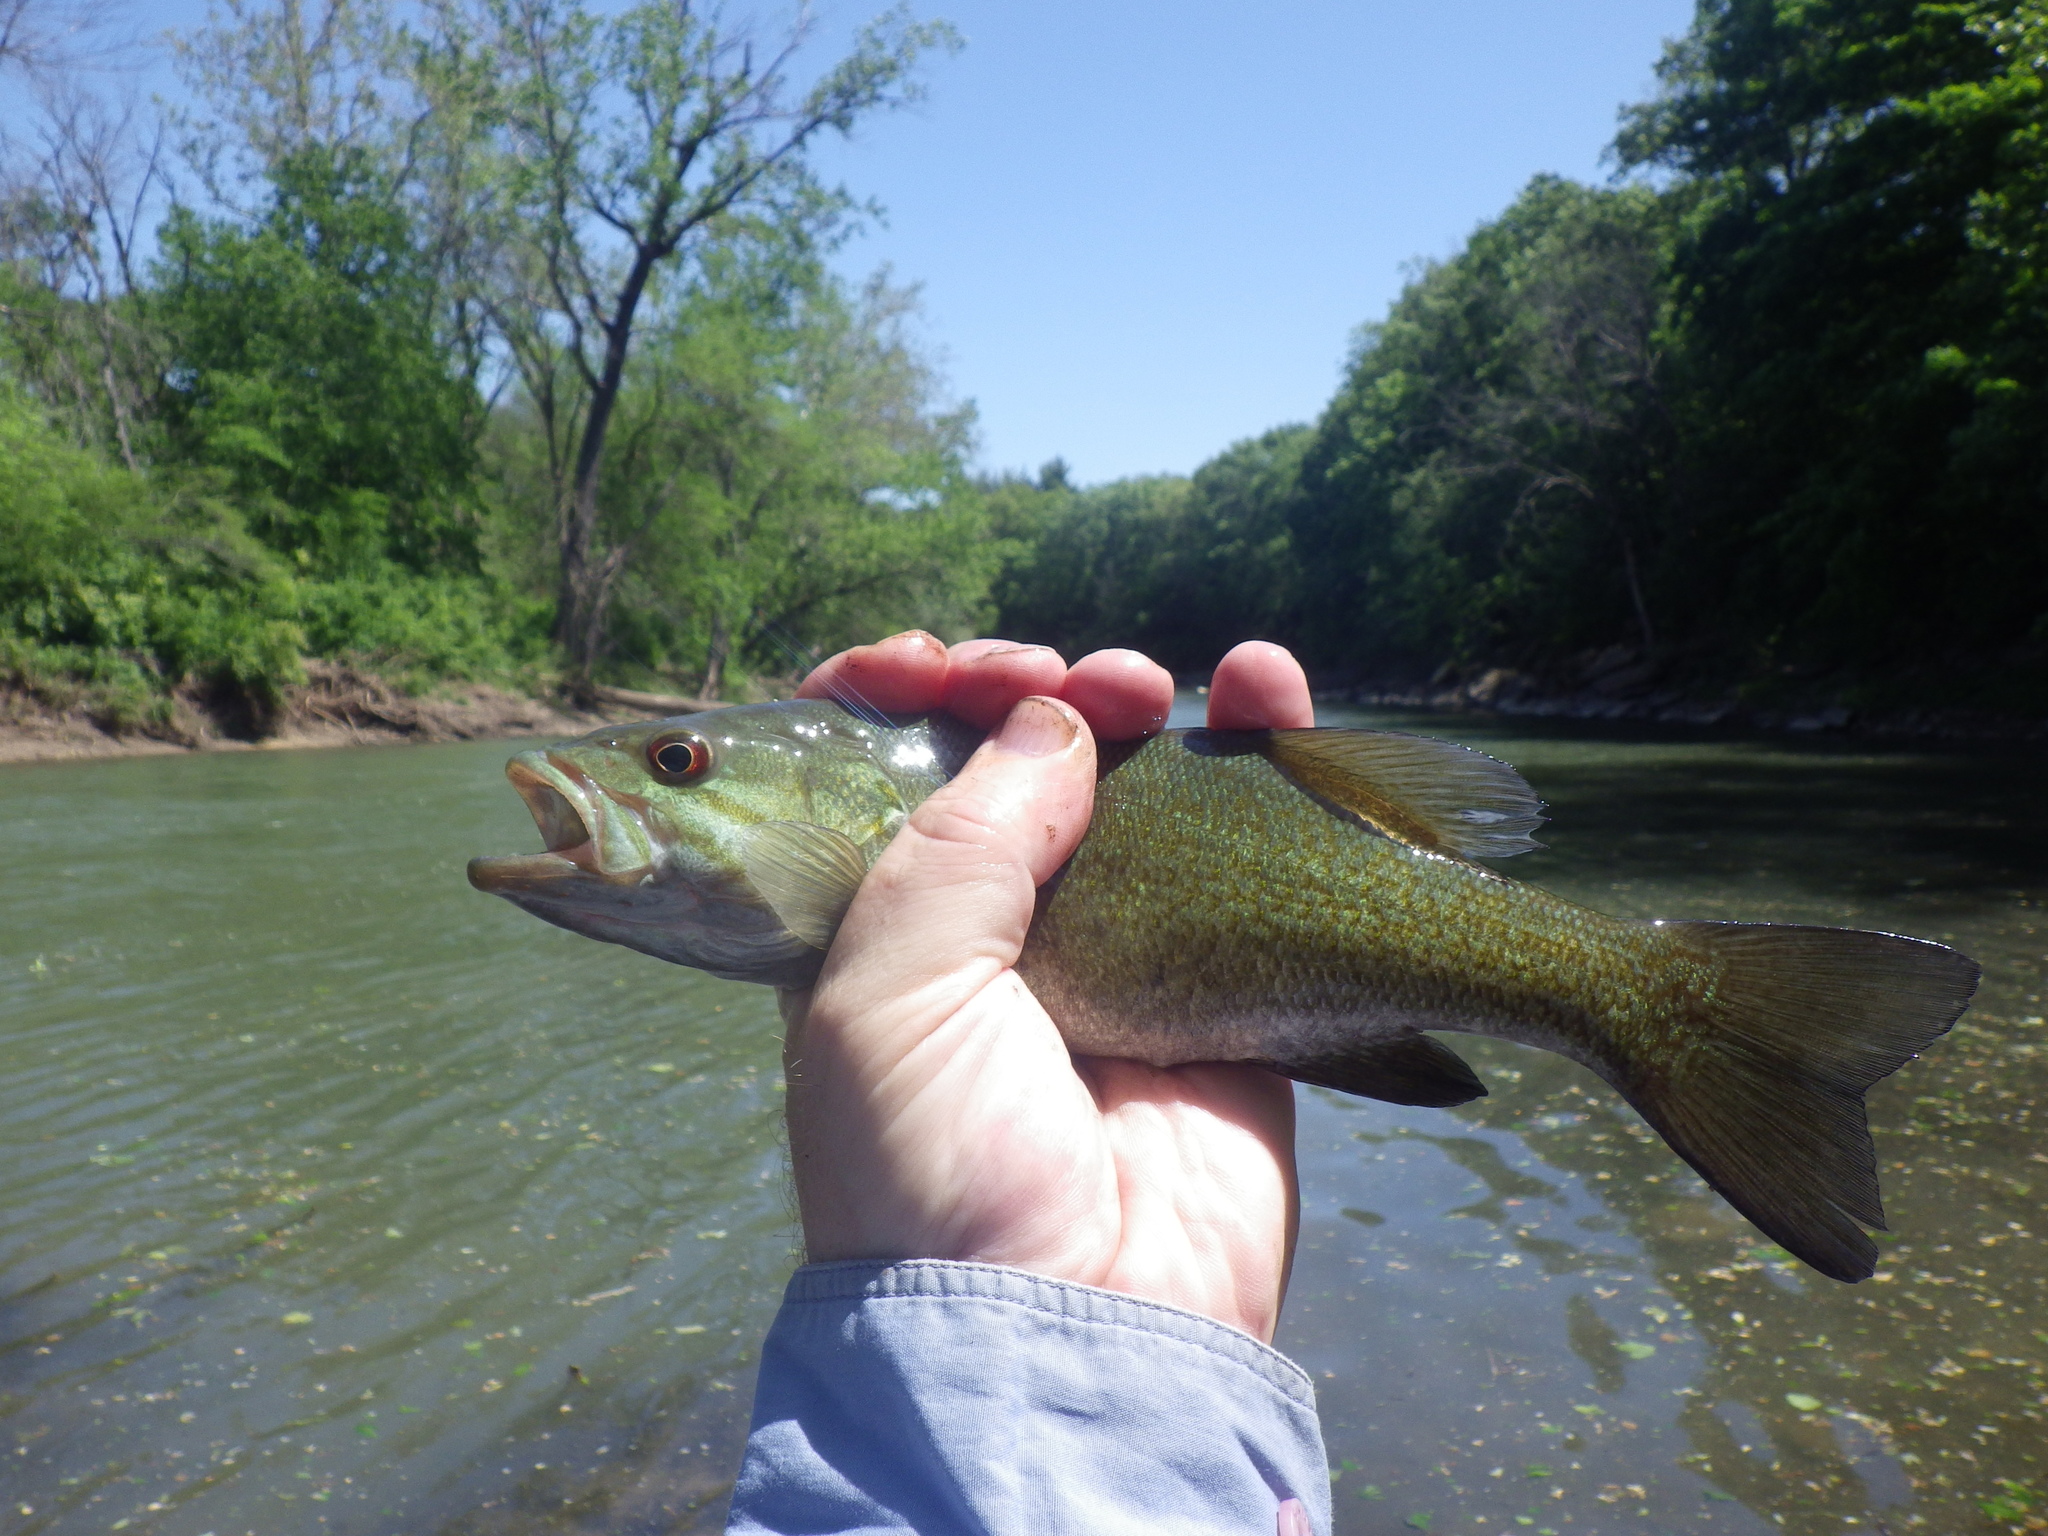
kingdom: Animalia
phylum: Chordata
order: Perciformes
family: Centrarchidae
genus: Micropterus
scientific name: Micropterus dolomieu
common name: Smallmouth bass
